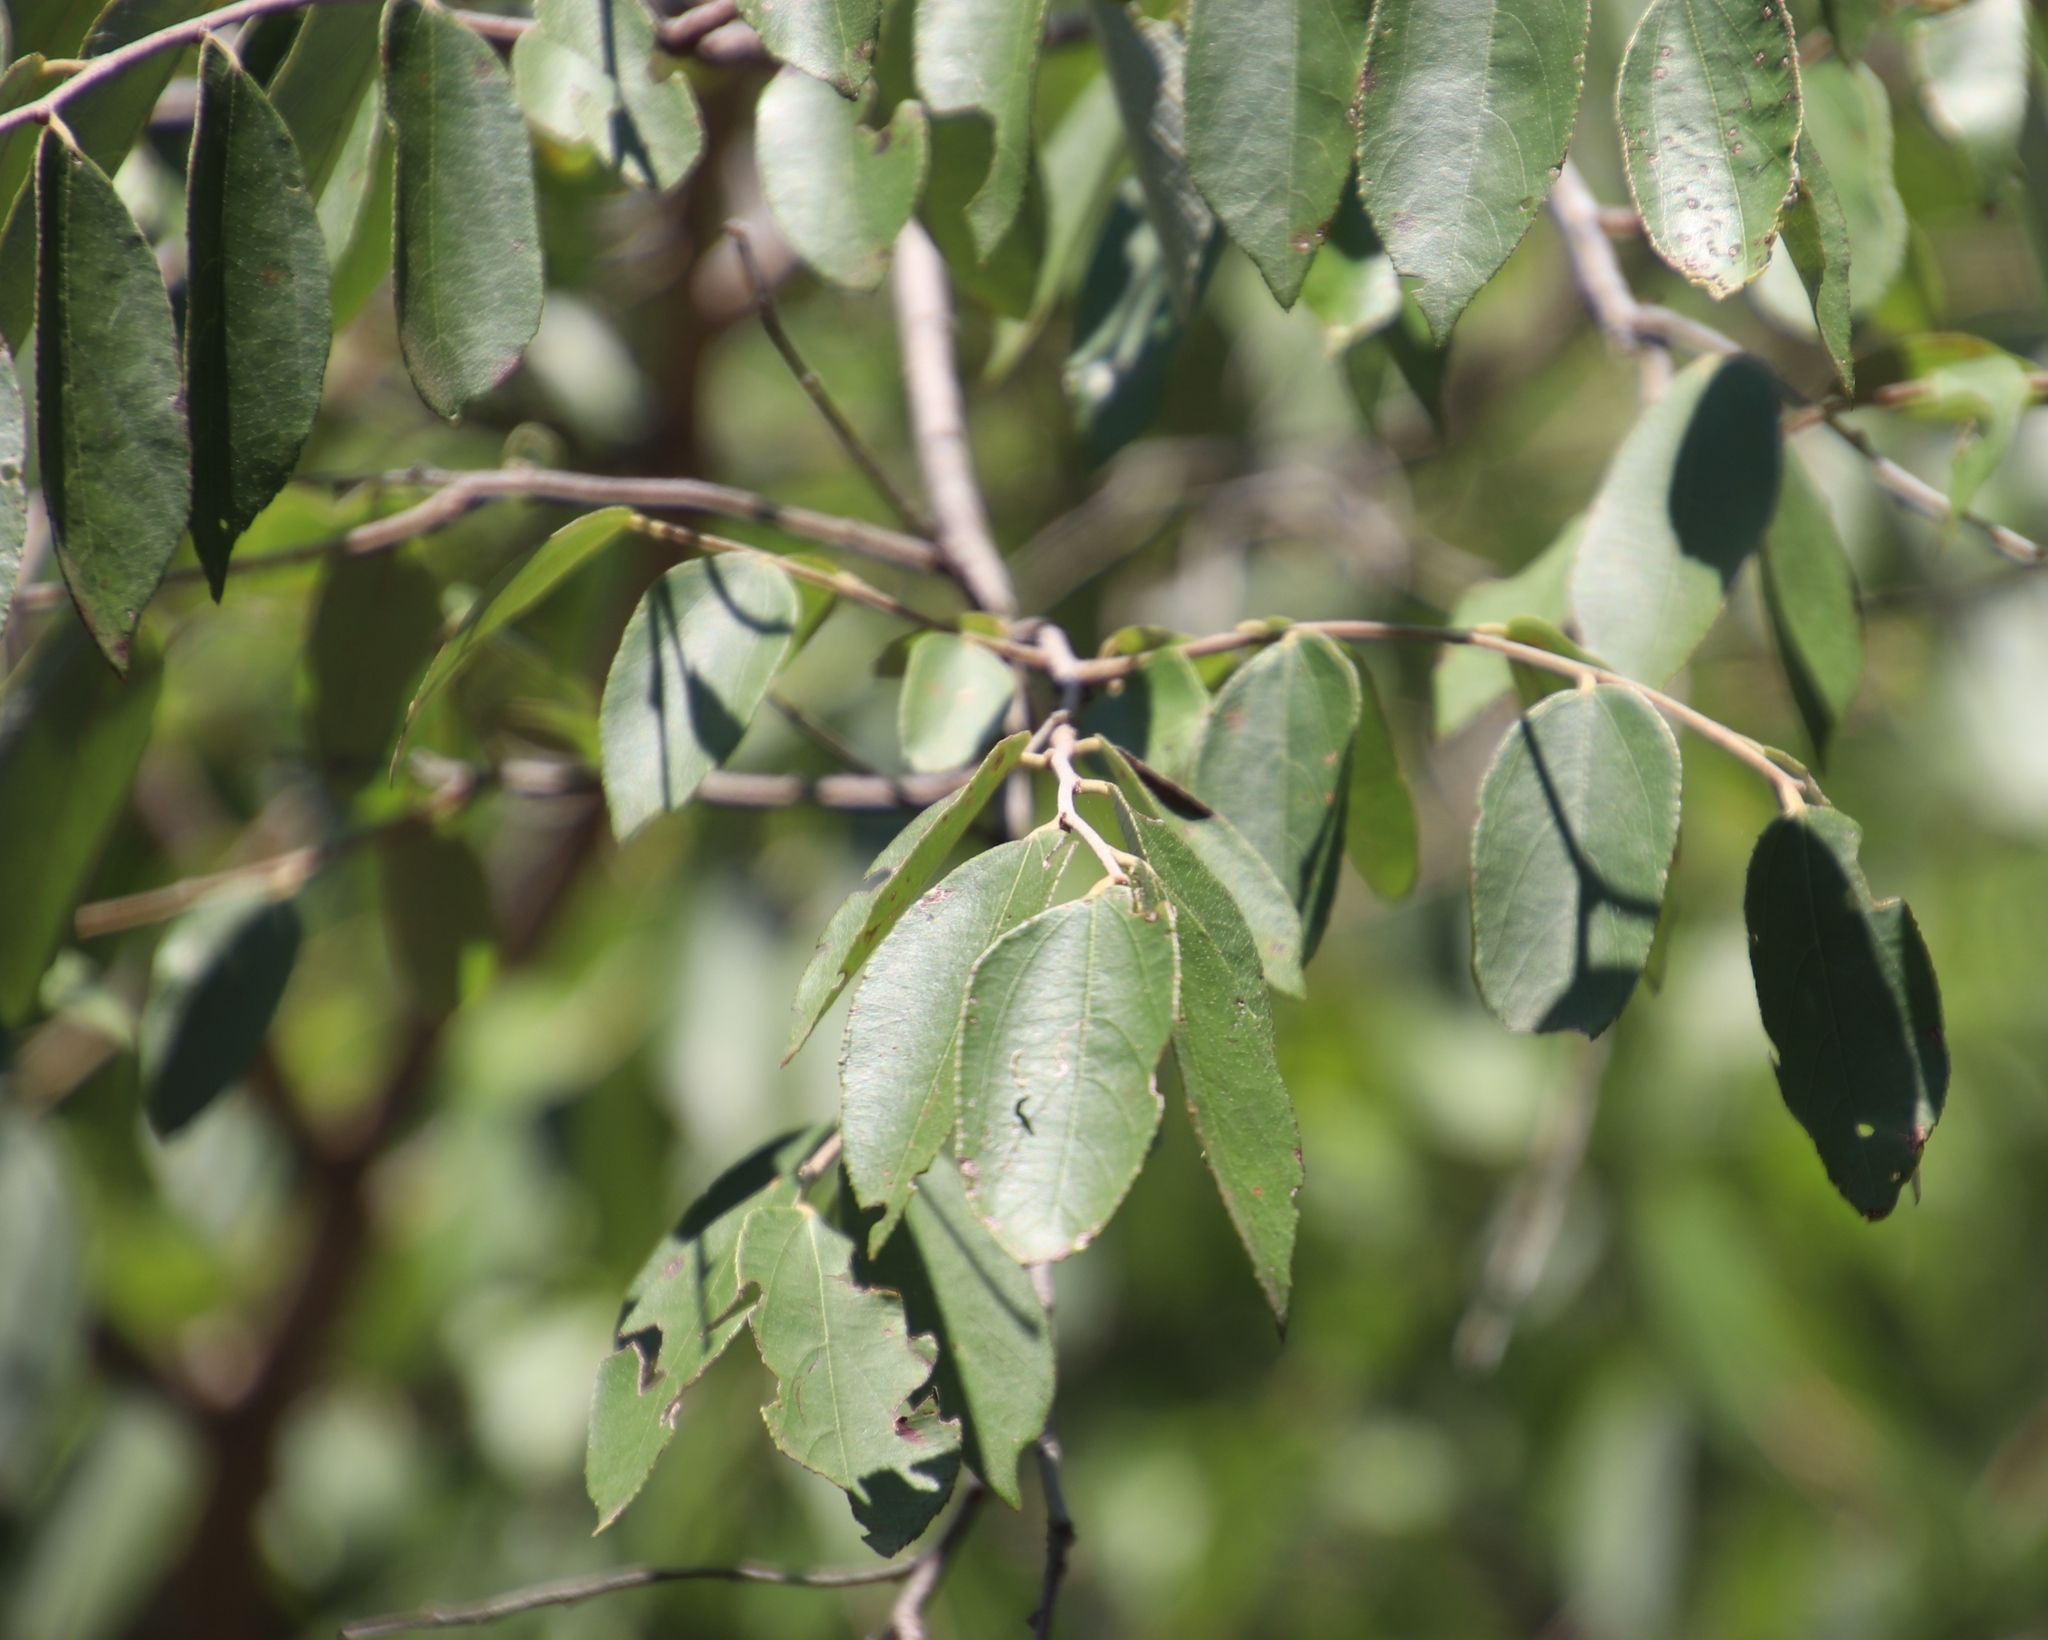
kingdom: Plantae
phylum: Tracheophyta
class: Magnoliopsida
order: Rosales
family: Rhamnaceae
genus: Ziziphus
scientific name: Ziziphus rivularis
